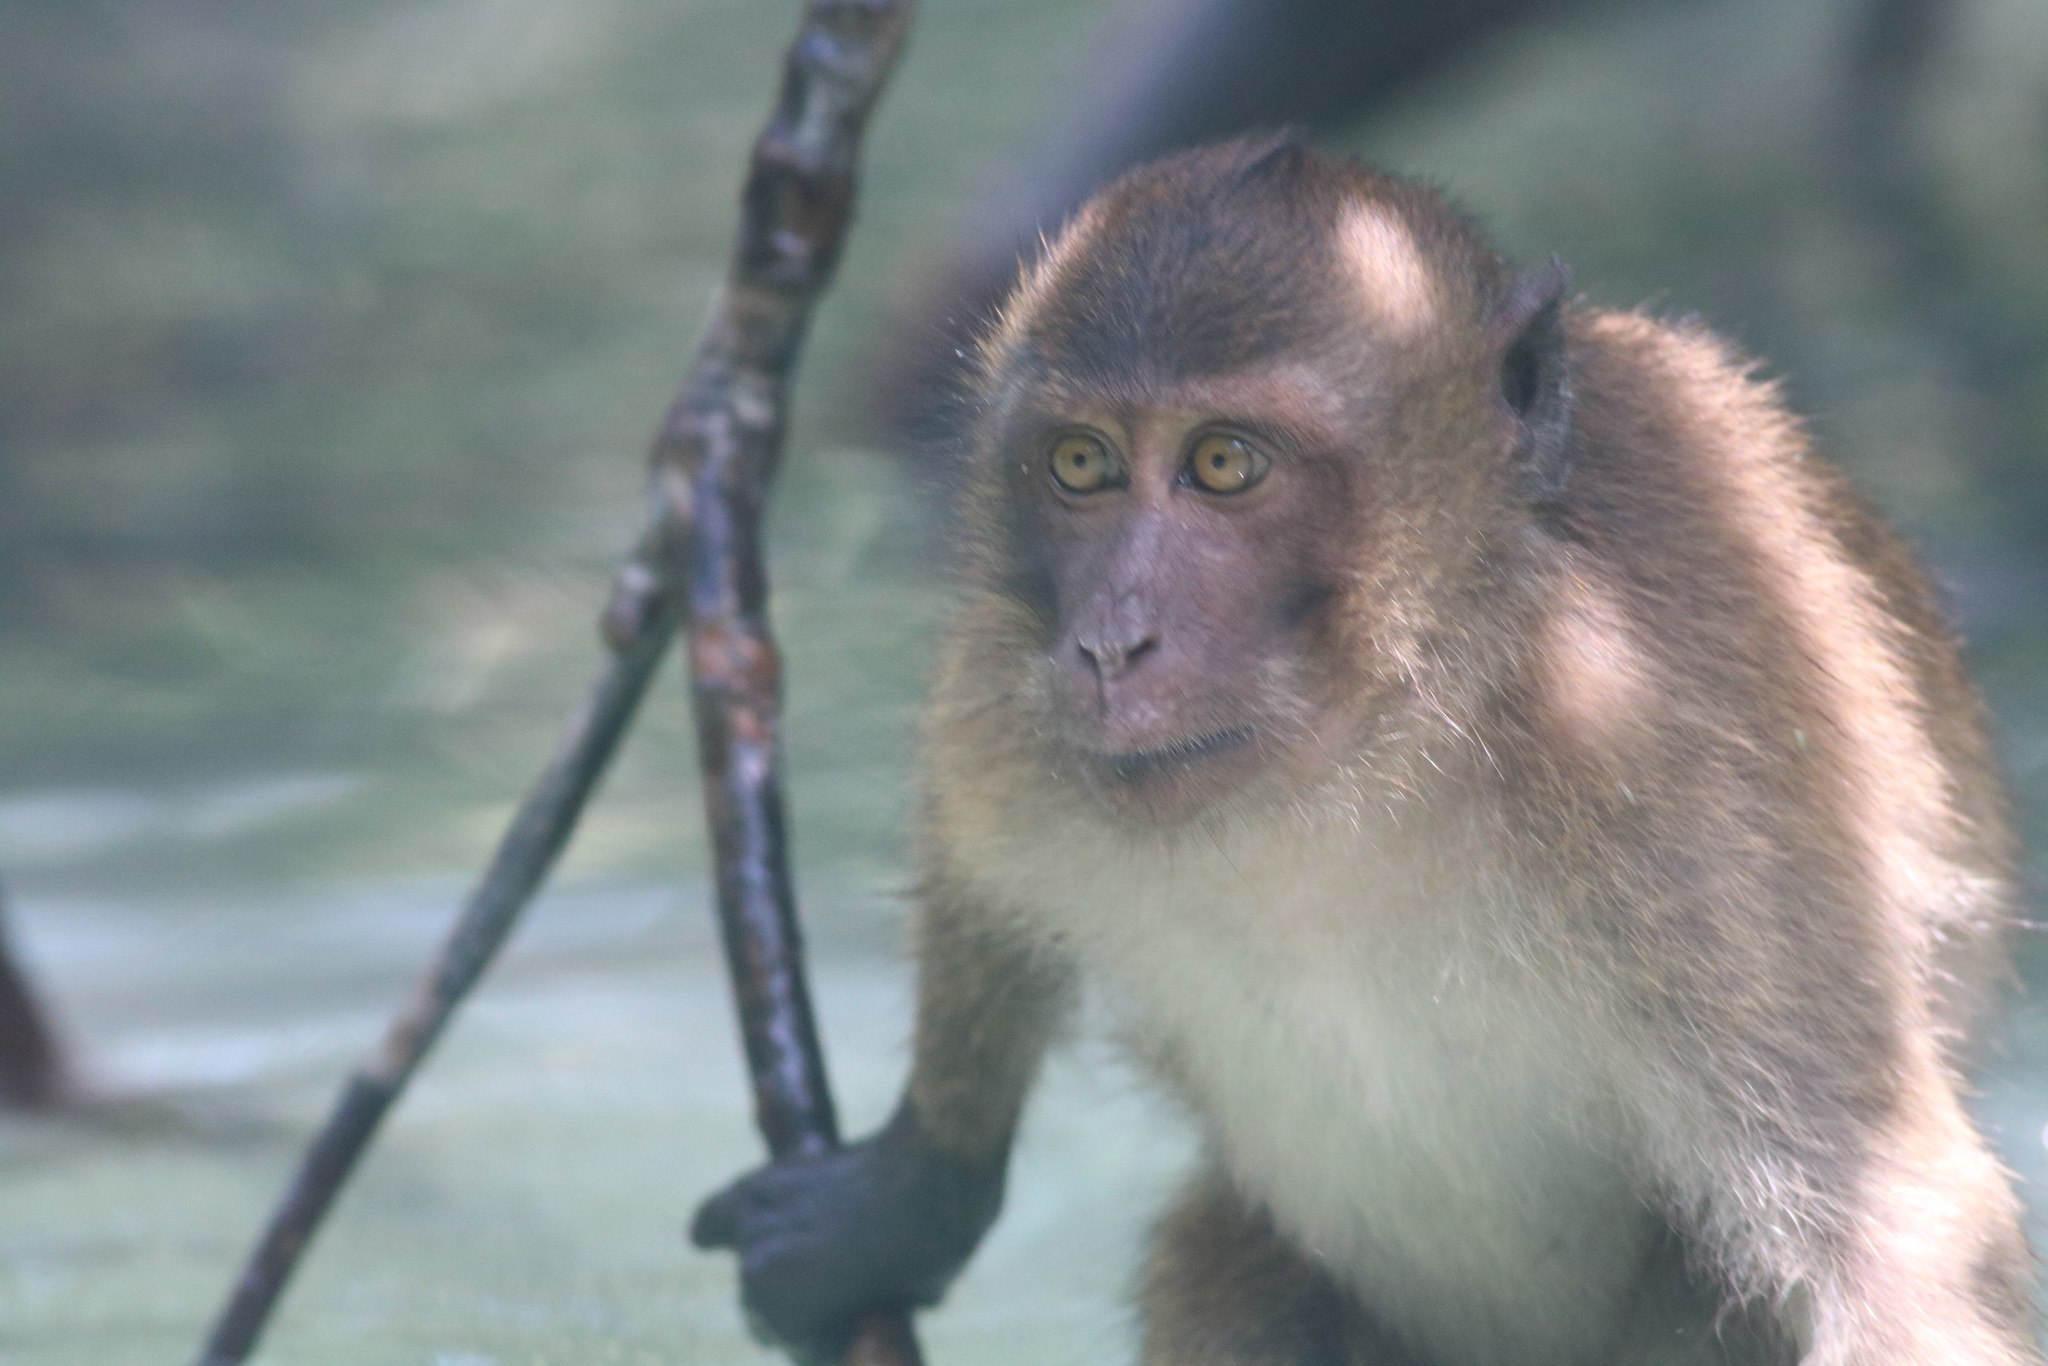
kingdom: Animalia
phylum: Chordata
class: Mammalia
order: Primates
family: Cercopithecidae
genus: Macaca
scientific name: Macaca fascicularis
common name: Crab-eating macaque
